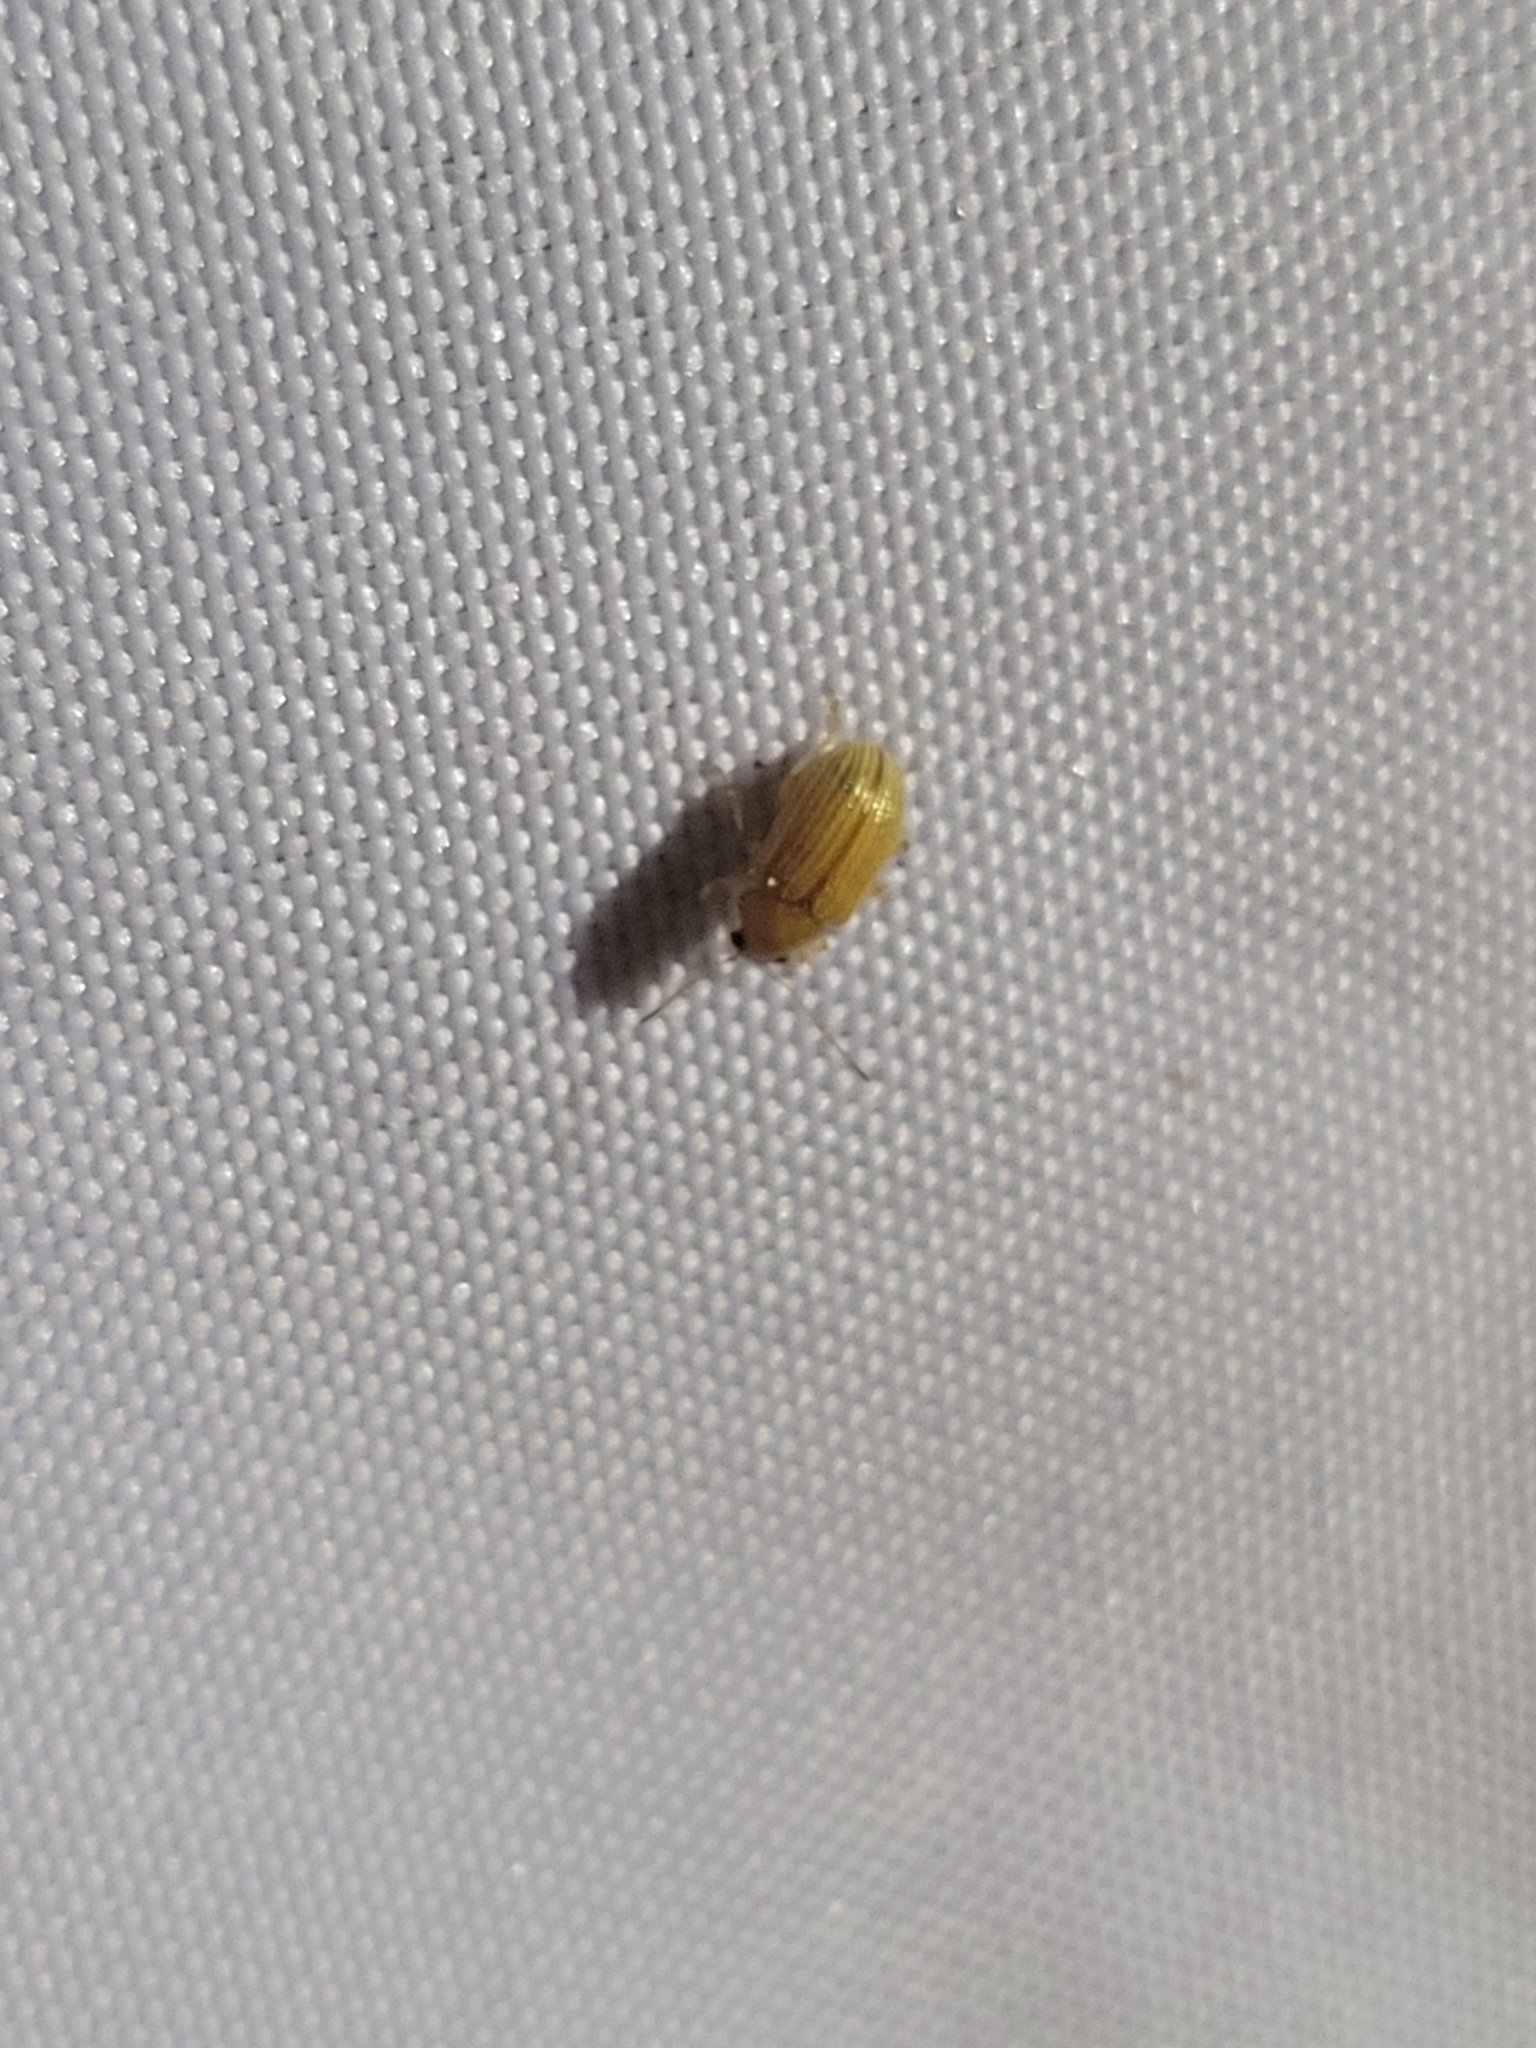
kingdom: Animalia
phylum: Arthropoda
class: Insecta
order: Coleoptera
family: Chrysomelidae
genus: Colaspis
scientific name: Colaspis brunnea
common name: Grape colaspis
